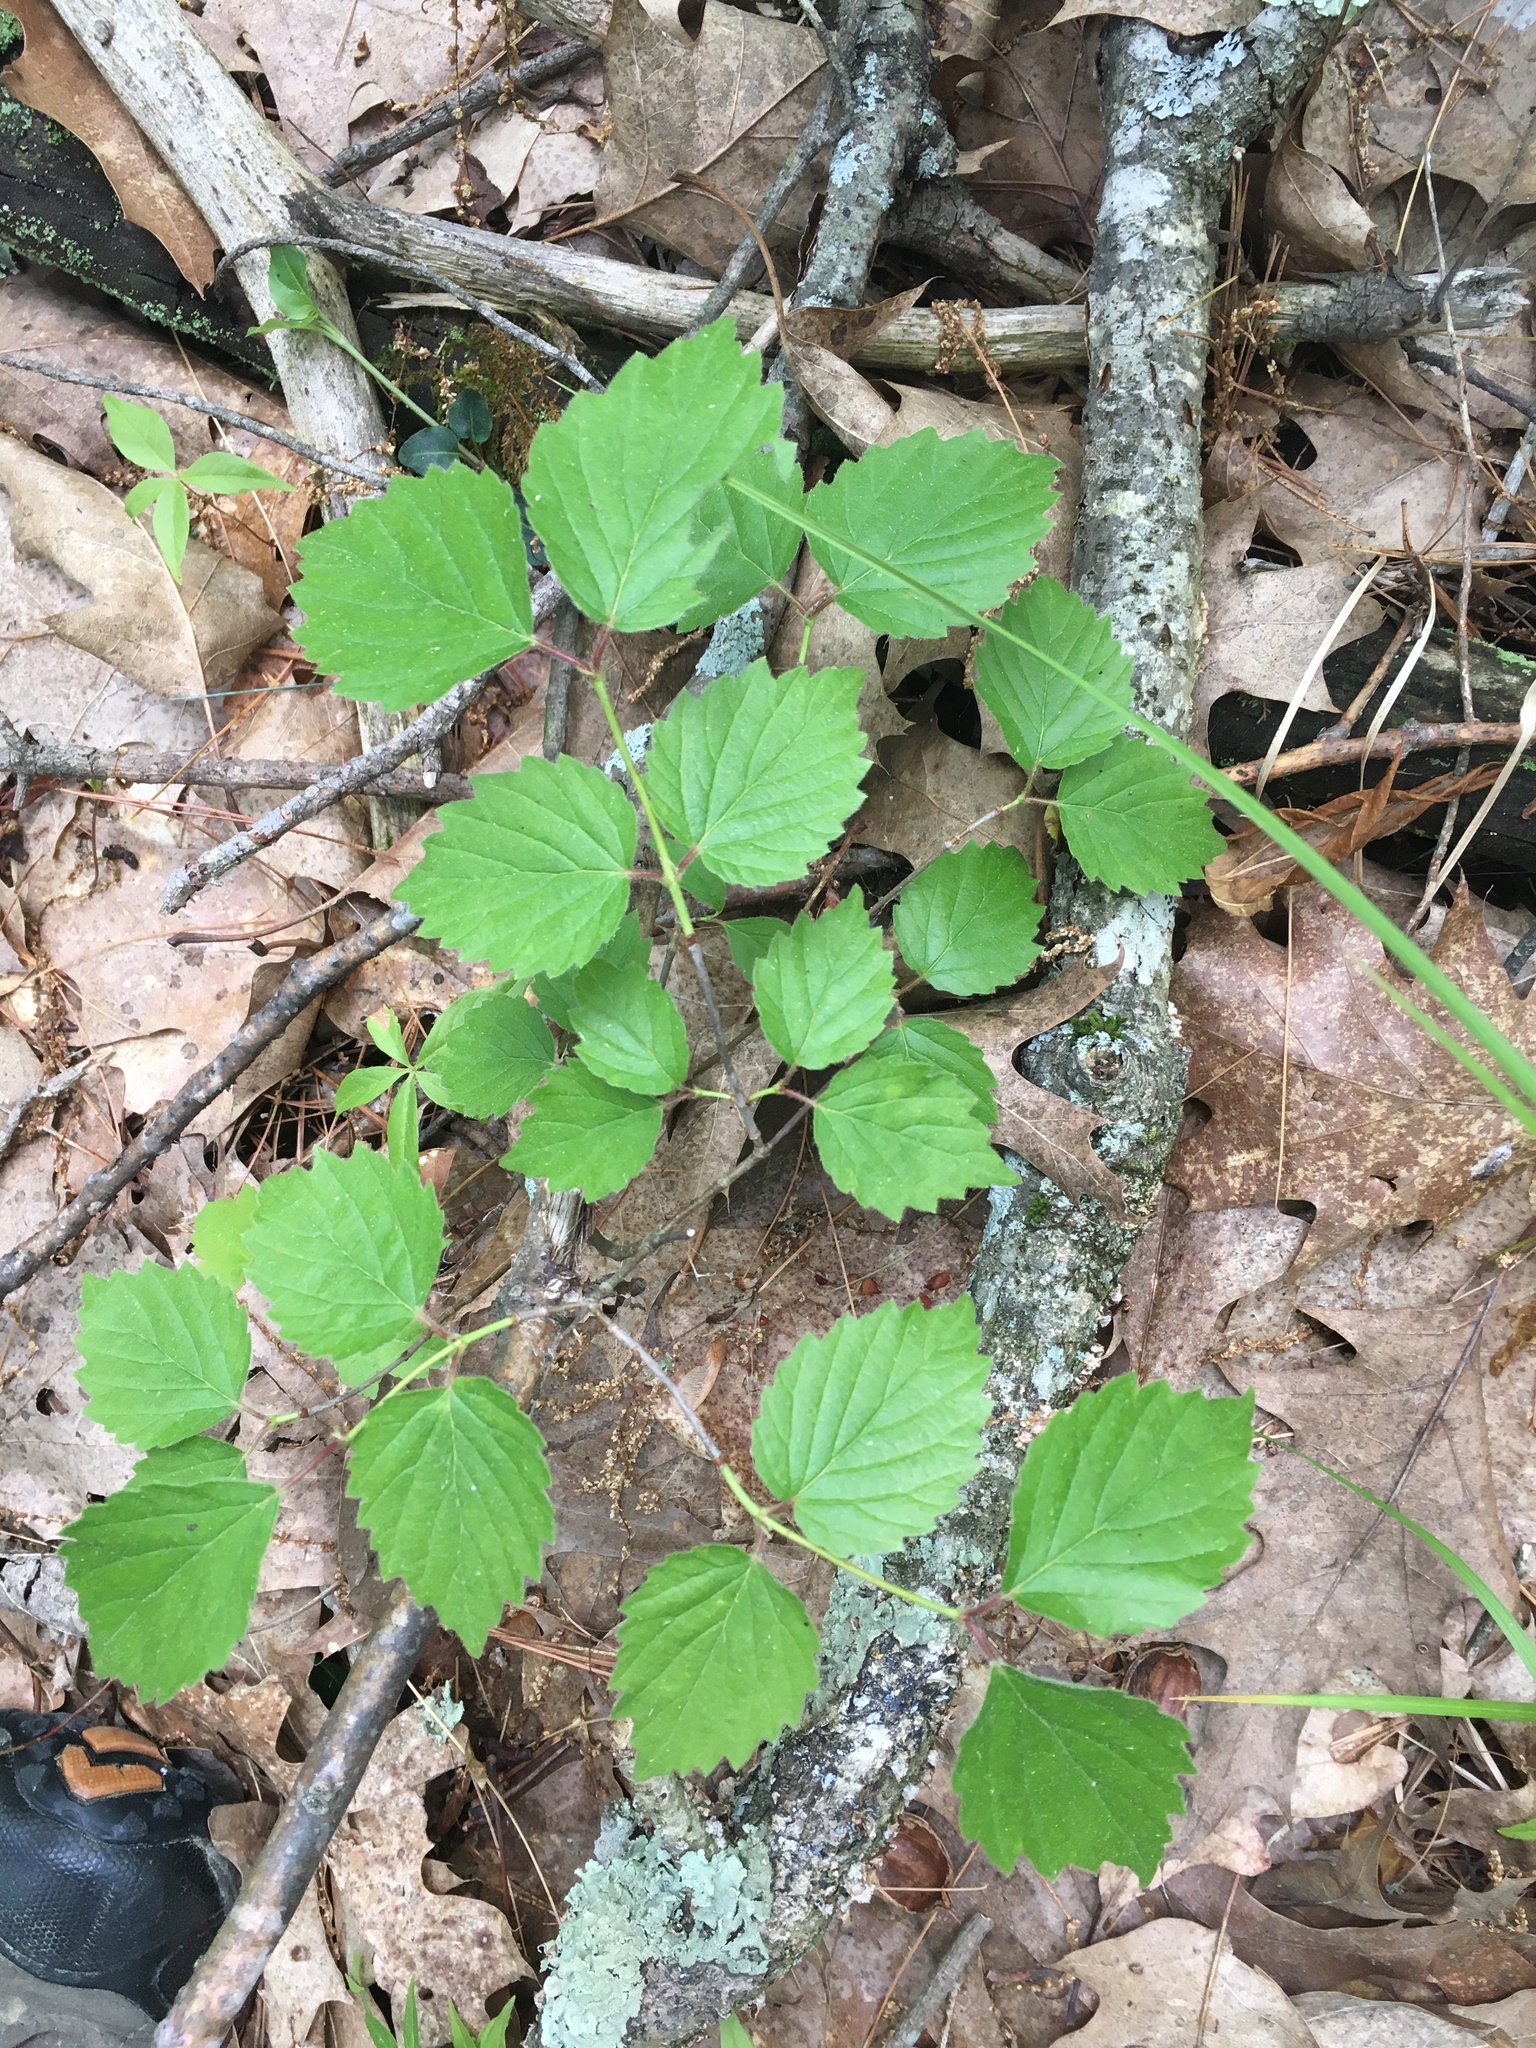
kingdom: Plantae
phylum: Tracheophyta
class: Magnoliopsida
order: Dipsacales
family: Viburnaceae
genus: Viburnum
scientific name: Viburnum rafinesqueanum
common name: Downy arrow-wood
